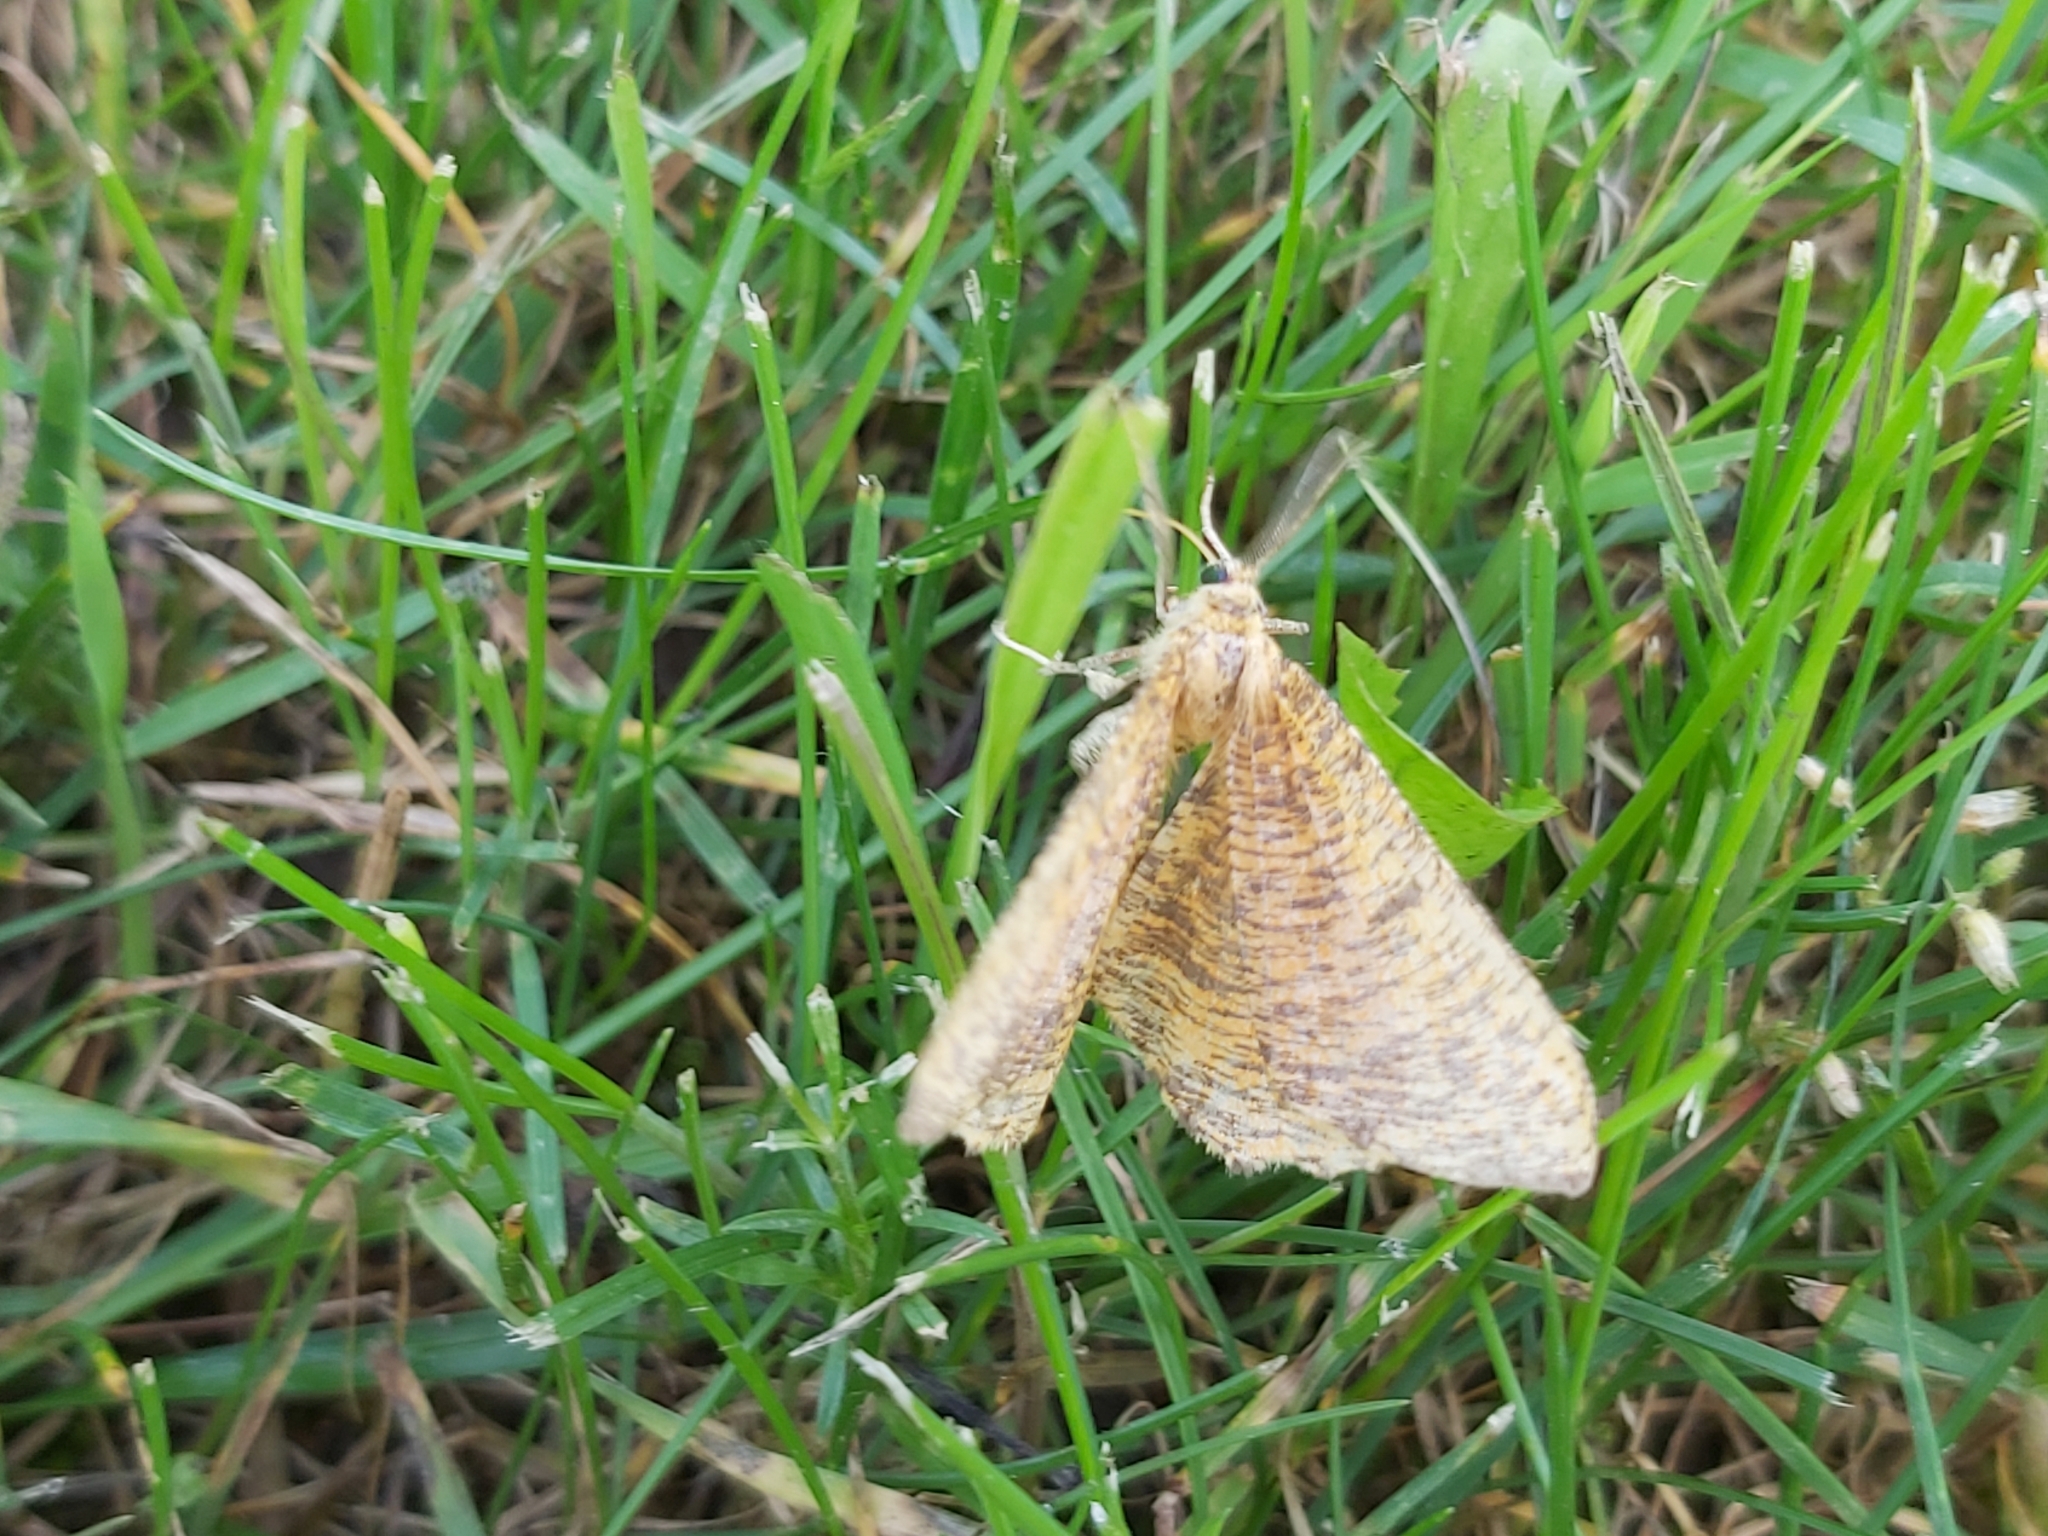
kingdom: Animalia
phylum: Arthropoda
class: Insecta
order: Lepidoptera
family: Geometridae
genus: Angerona
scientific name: Angerona prunaria
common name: Orange moth
